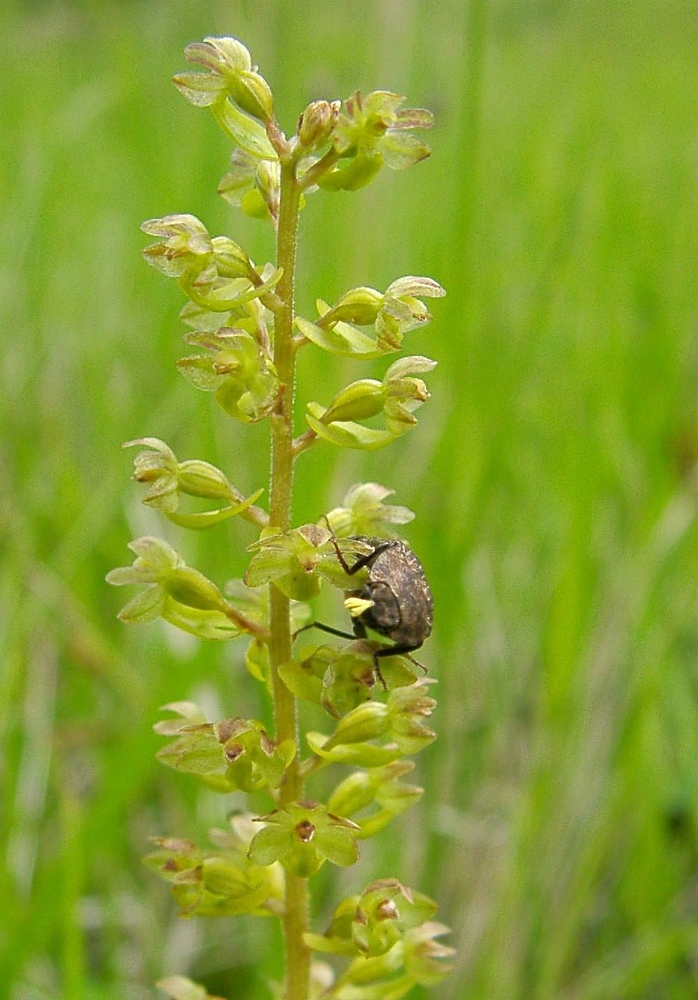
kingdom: Plantae
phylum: Tracheophyta
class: Liliopsida
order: Asparagales
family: Orchidaceae
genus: Neottia
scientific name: Neottia ovata
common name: Common twayblade
